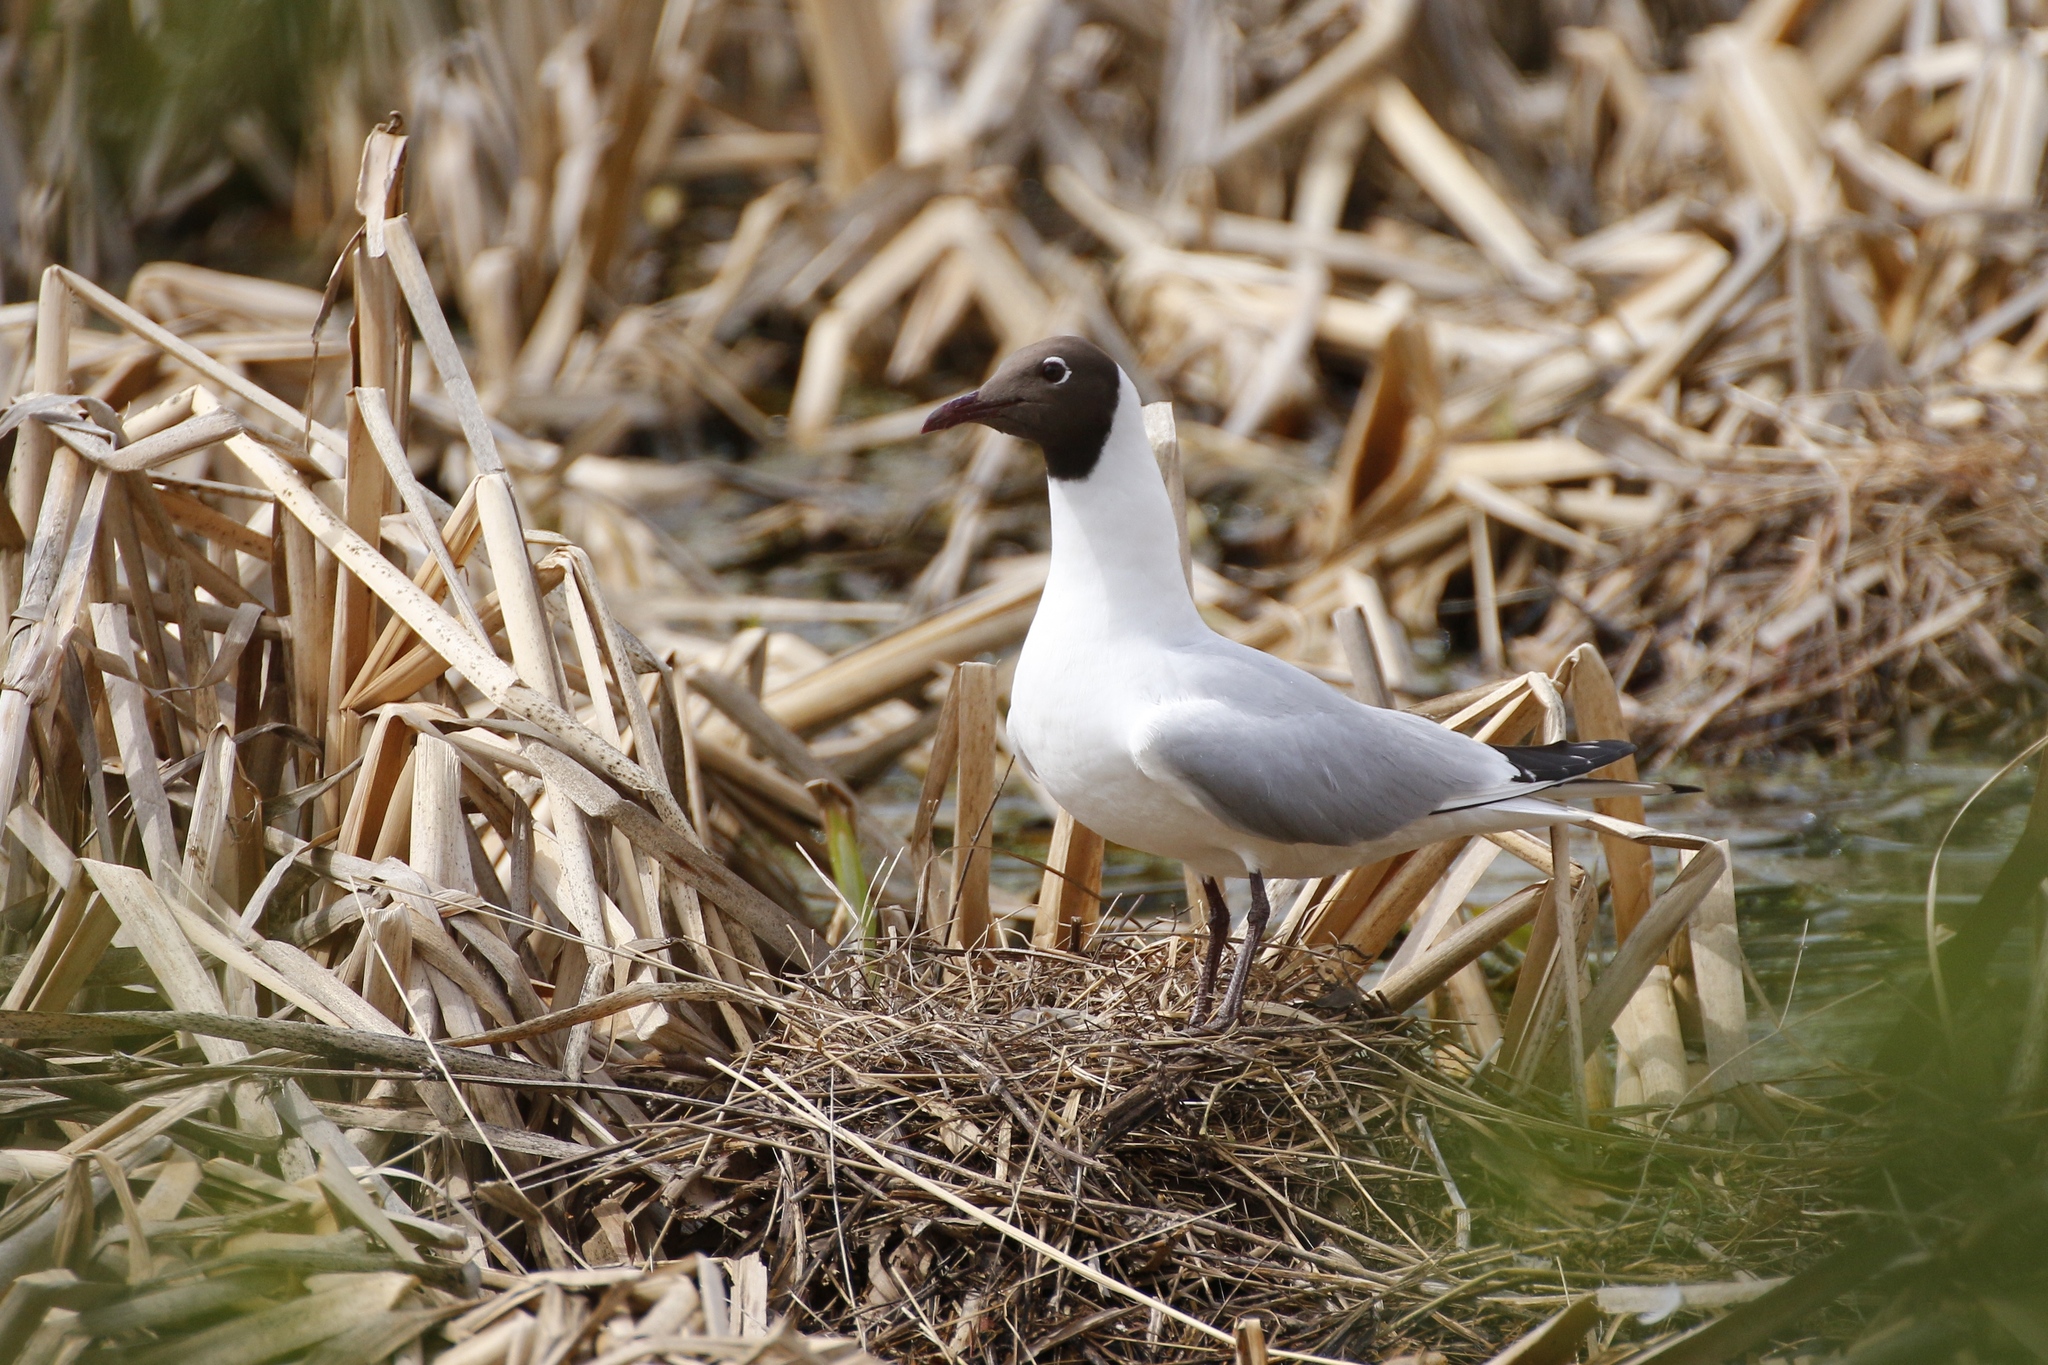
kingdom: Animalia
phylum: Chordata
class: Aves
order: Charadriiformes
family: Laridae
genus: Chroicocephalus
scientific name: Chroicocephalus ridibundus
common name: Black-headed gull
